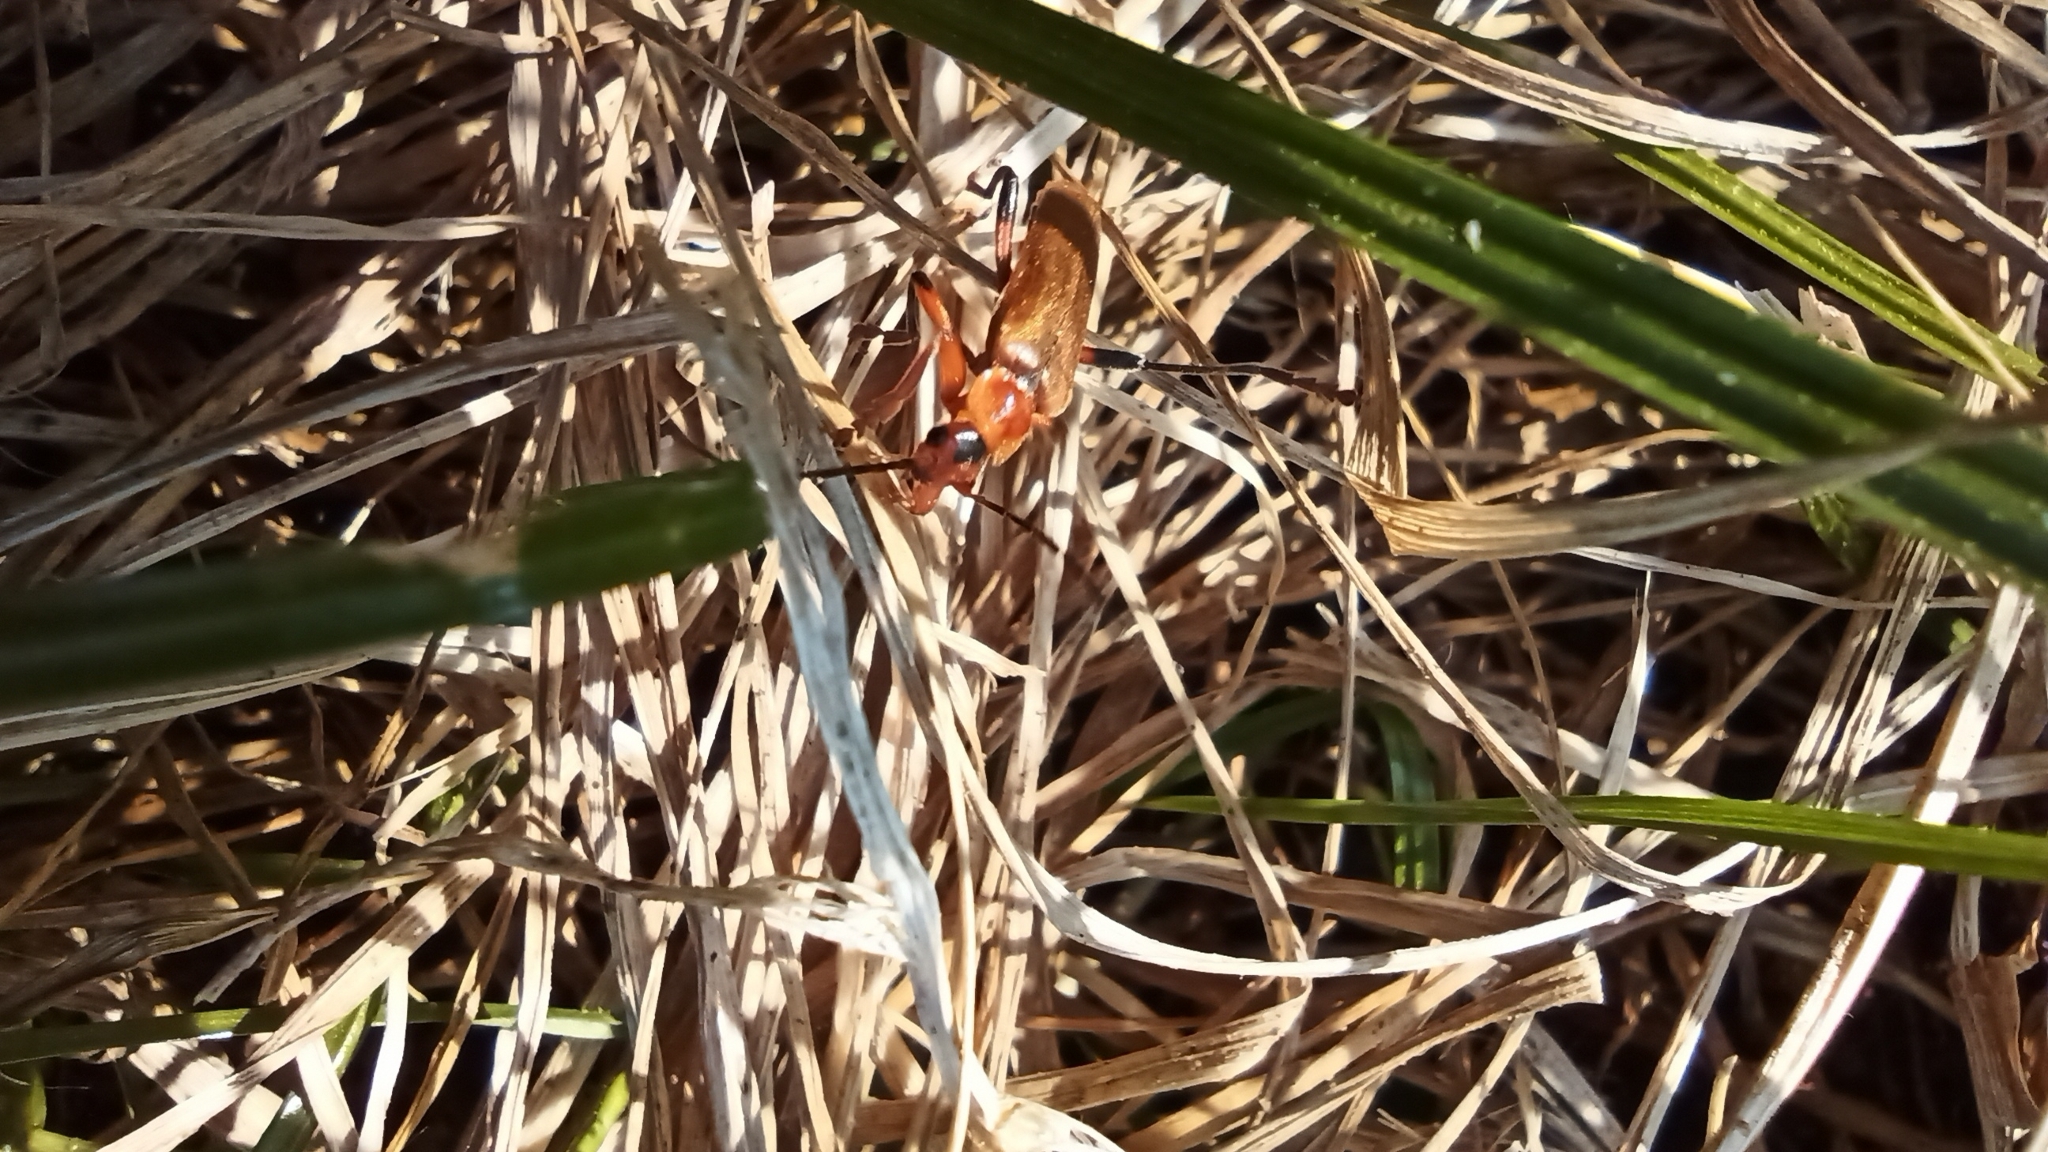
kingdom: Animalia
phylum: Arthropoda
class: Insecta
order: Coleoptera
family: Cantharidae
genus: Cantharis
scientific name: Cantharis livida
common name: Livid soldier beetle
